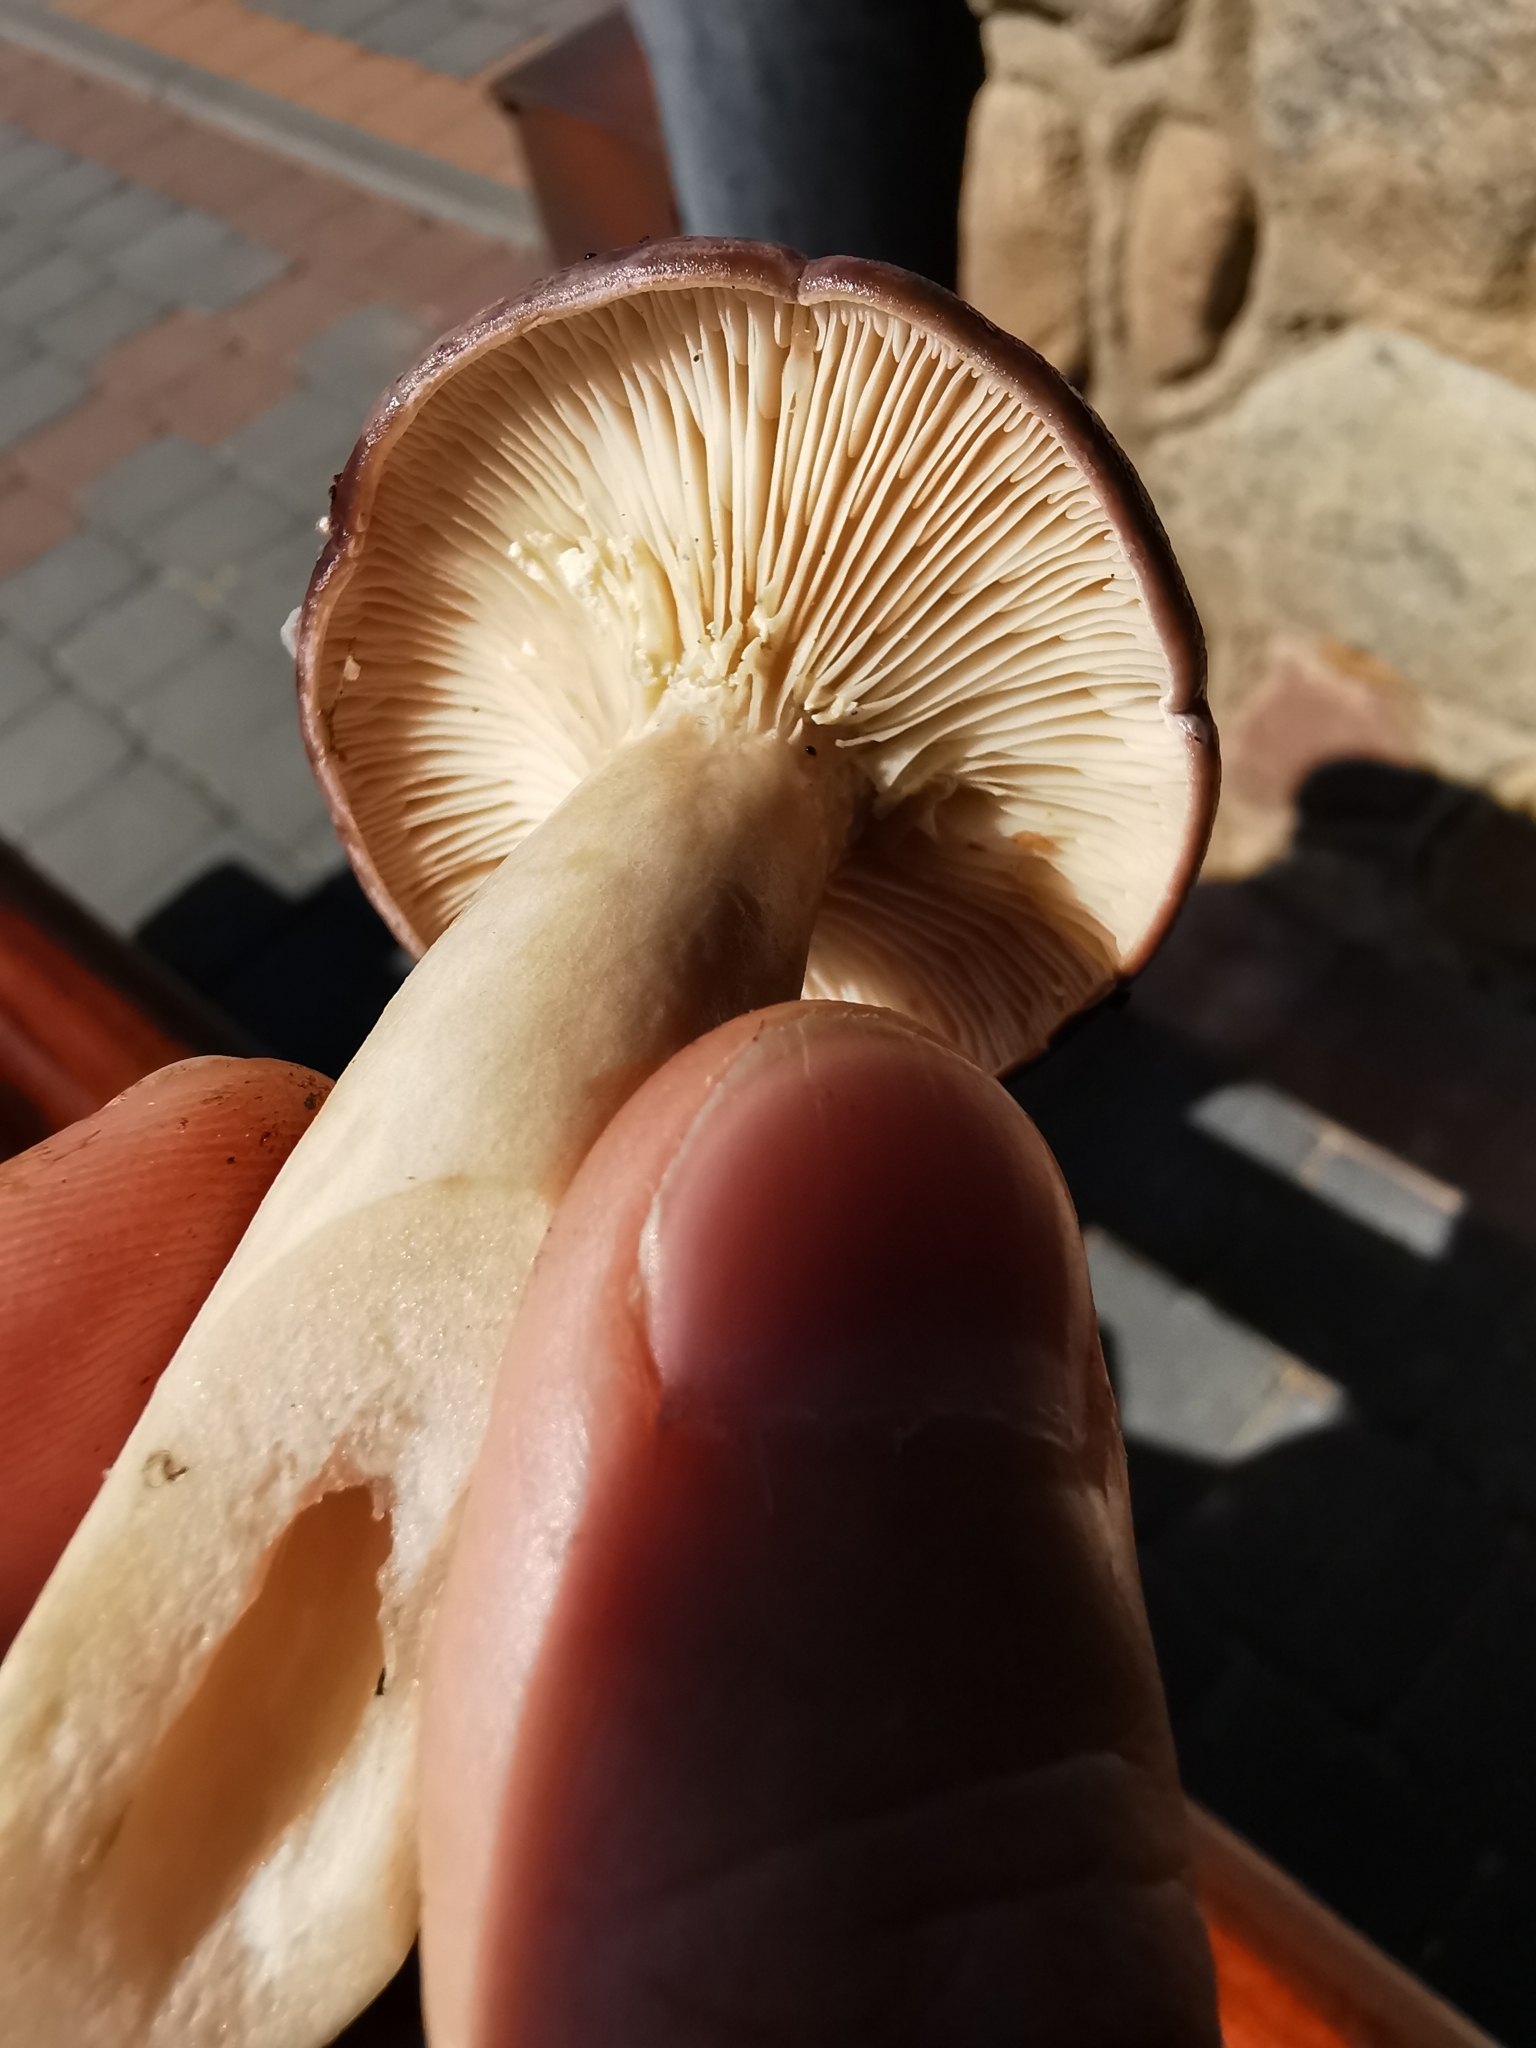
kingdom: Fungi
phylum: Basidiomycota
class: Agaricomycetes
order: Russulales
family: Russulaceae
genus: Lactarius
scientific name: Lactarius trivialis
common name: Tacked milkcap
